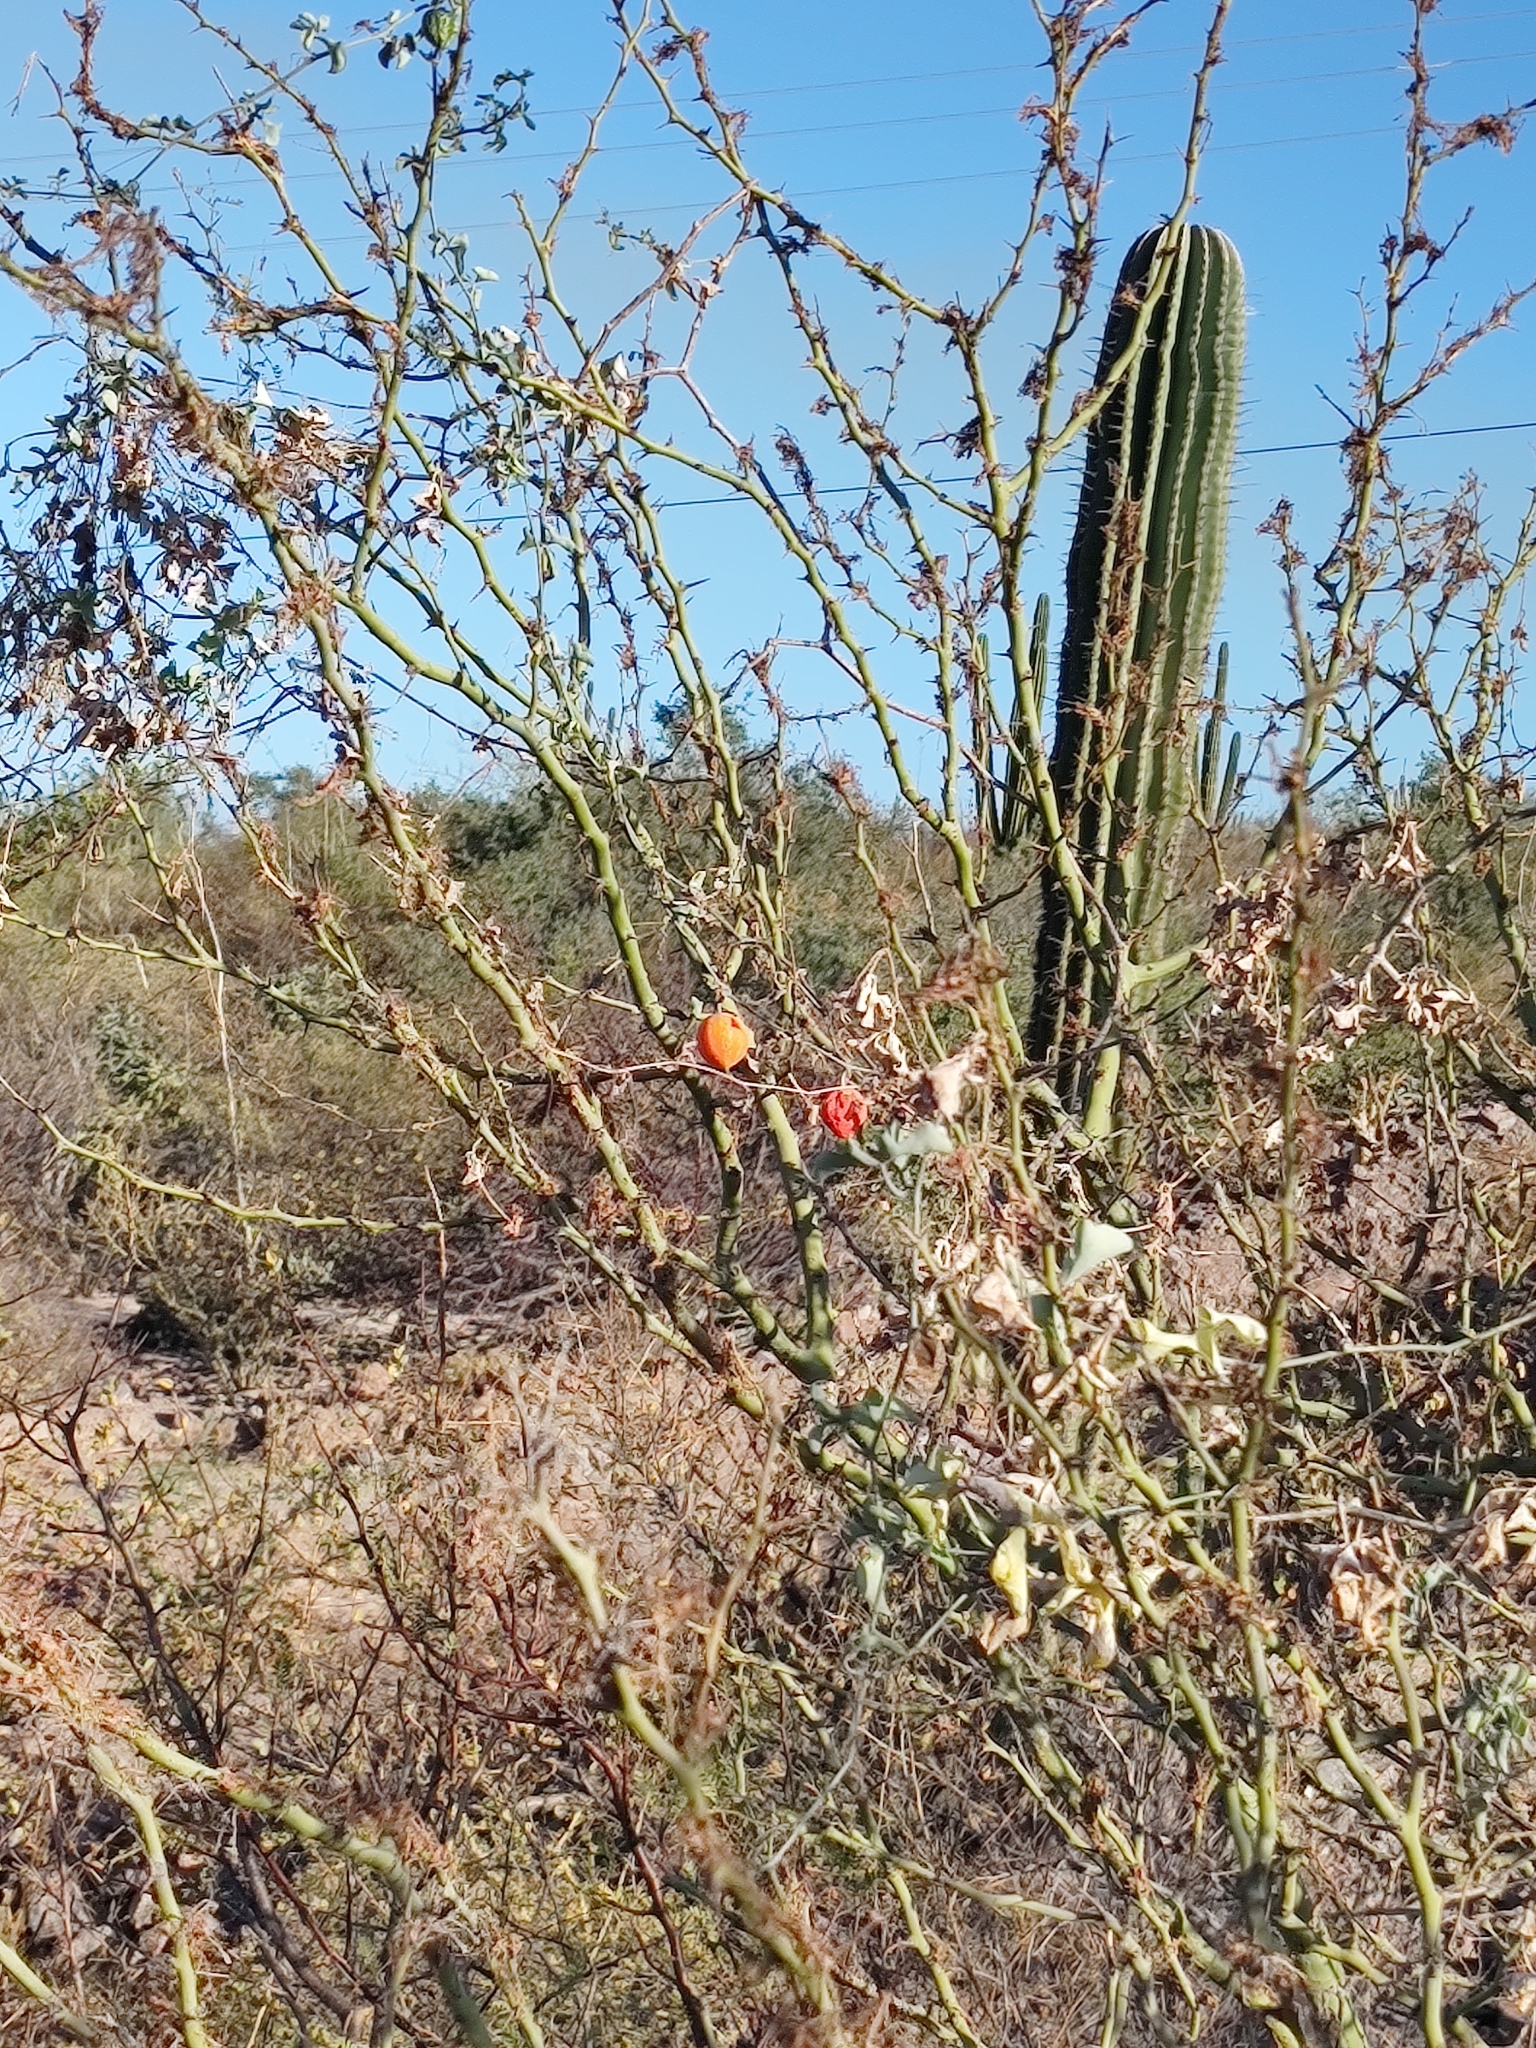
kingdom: Plantae
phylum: Tracheophyta
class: Magnoliopsida
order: Cucurbitales
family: Cucurbitaceae
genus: Ibervillea
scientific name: Ibervillea sonorae
